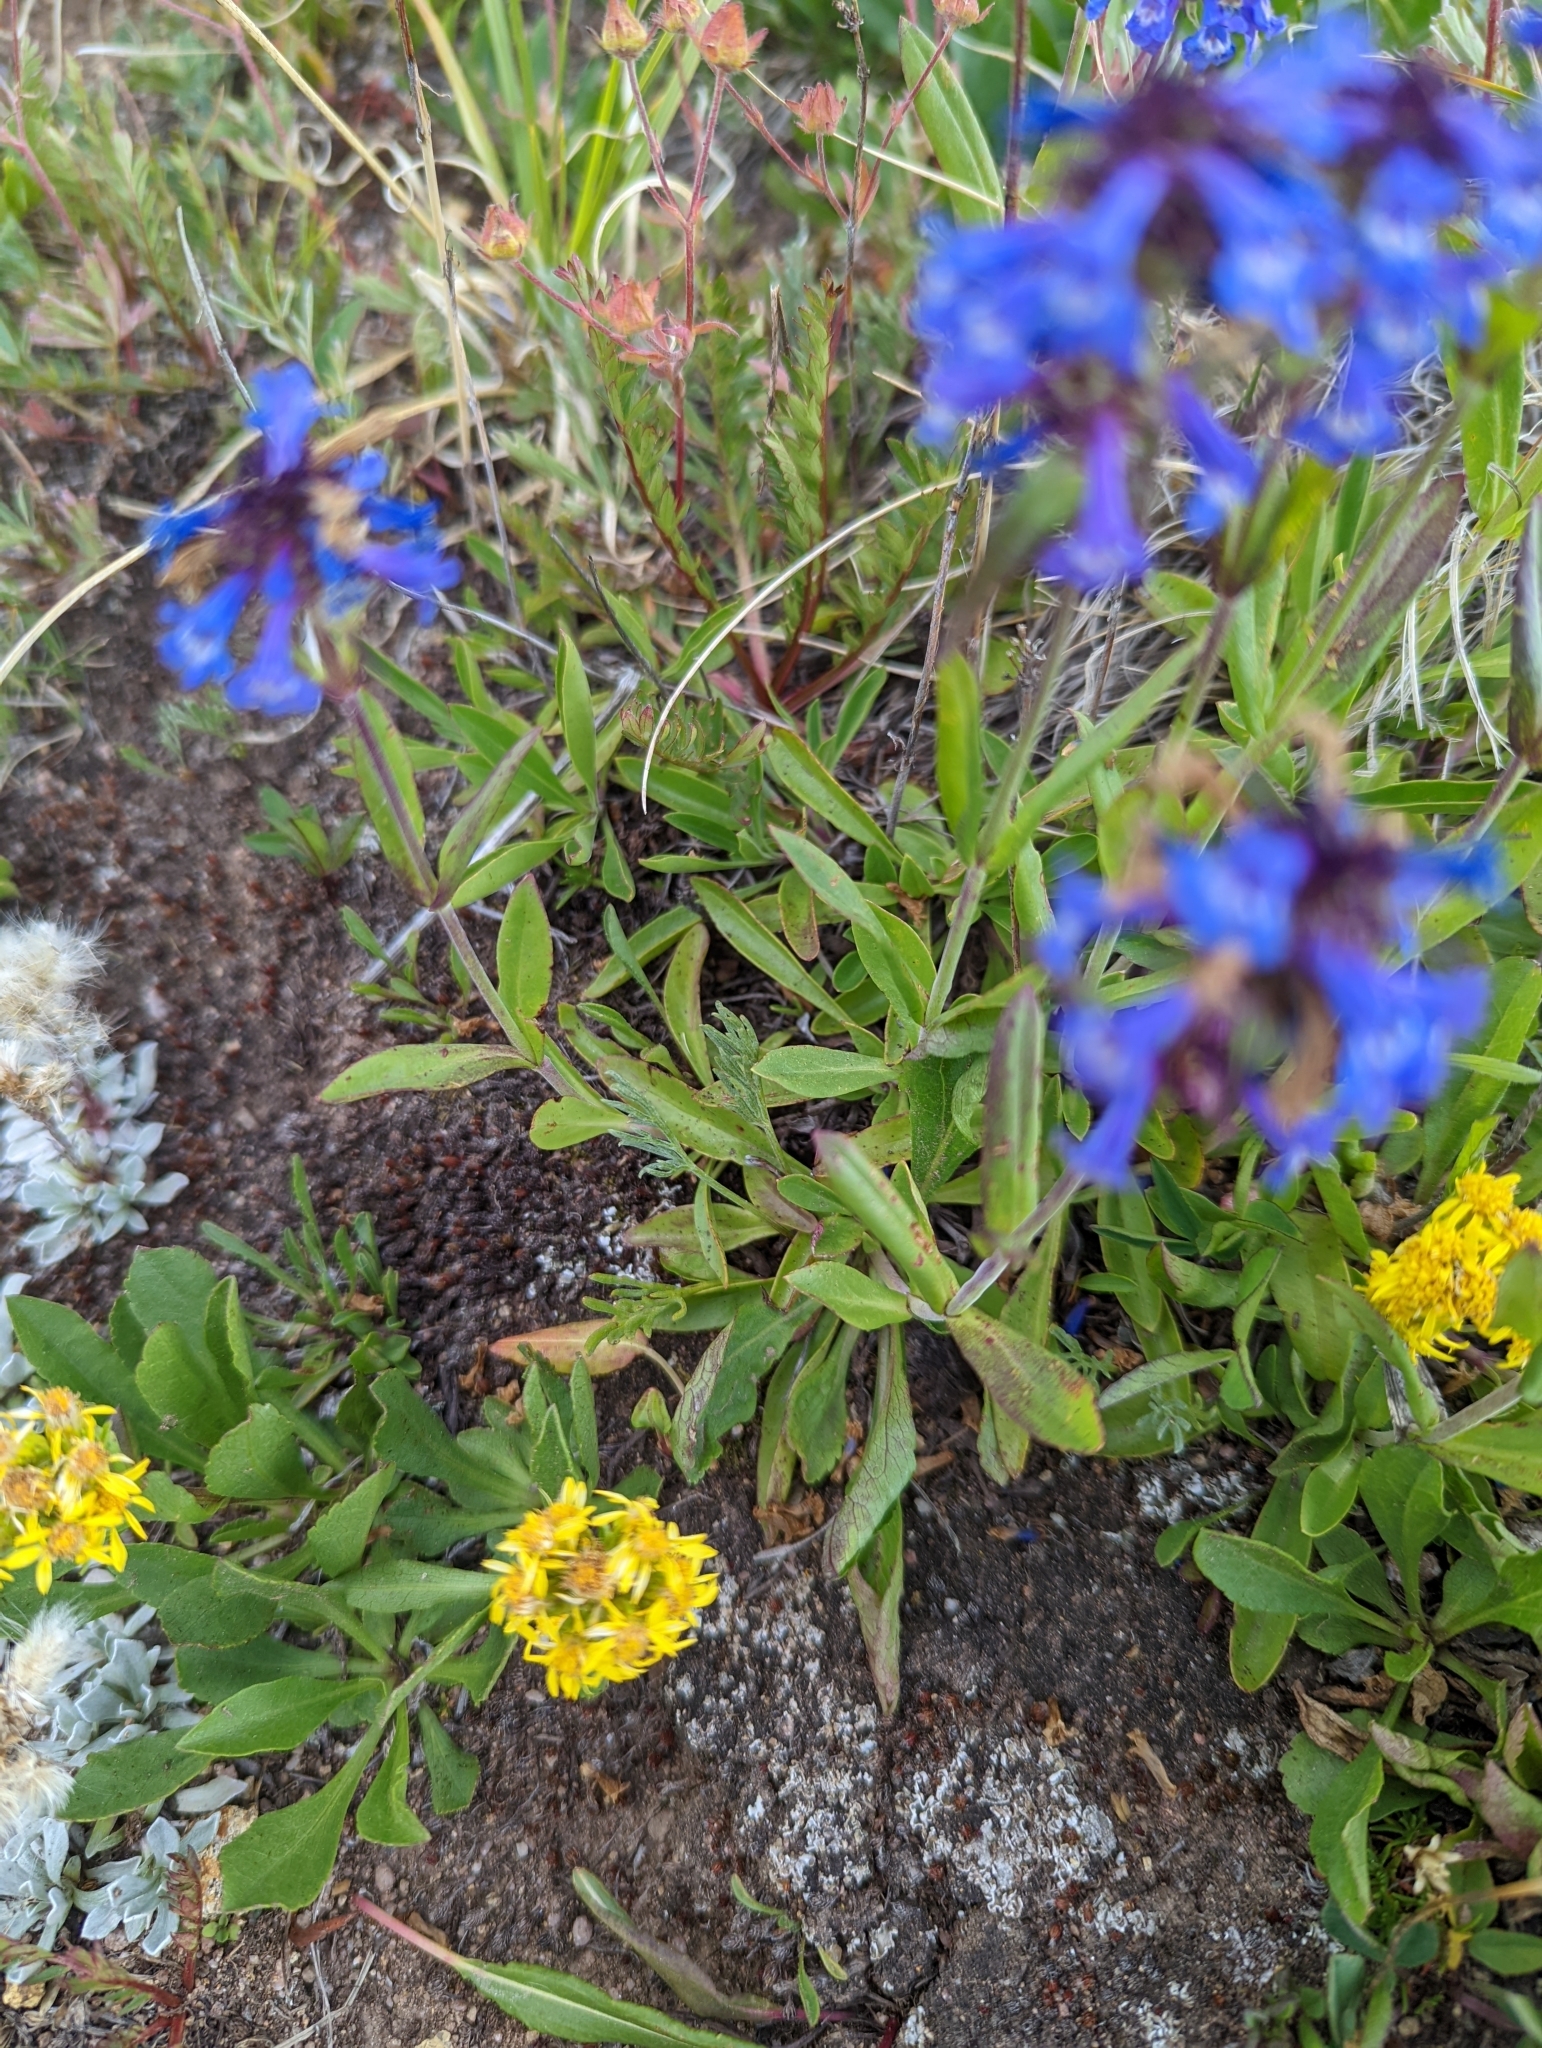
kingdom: Plantae
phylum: Tracheophyta
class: Magnoliopsida
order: Lamiales
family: Plantaginaceae
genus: Penstemon
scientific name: Penstemon procerus
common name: Small-flower penstemon
